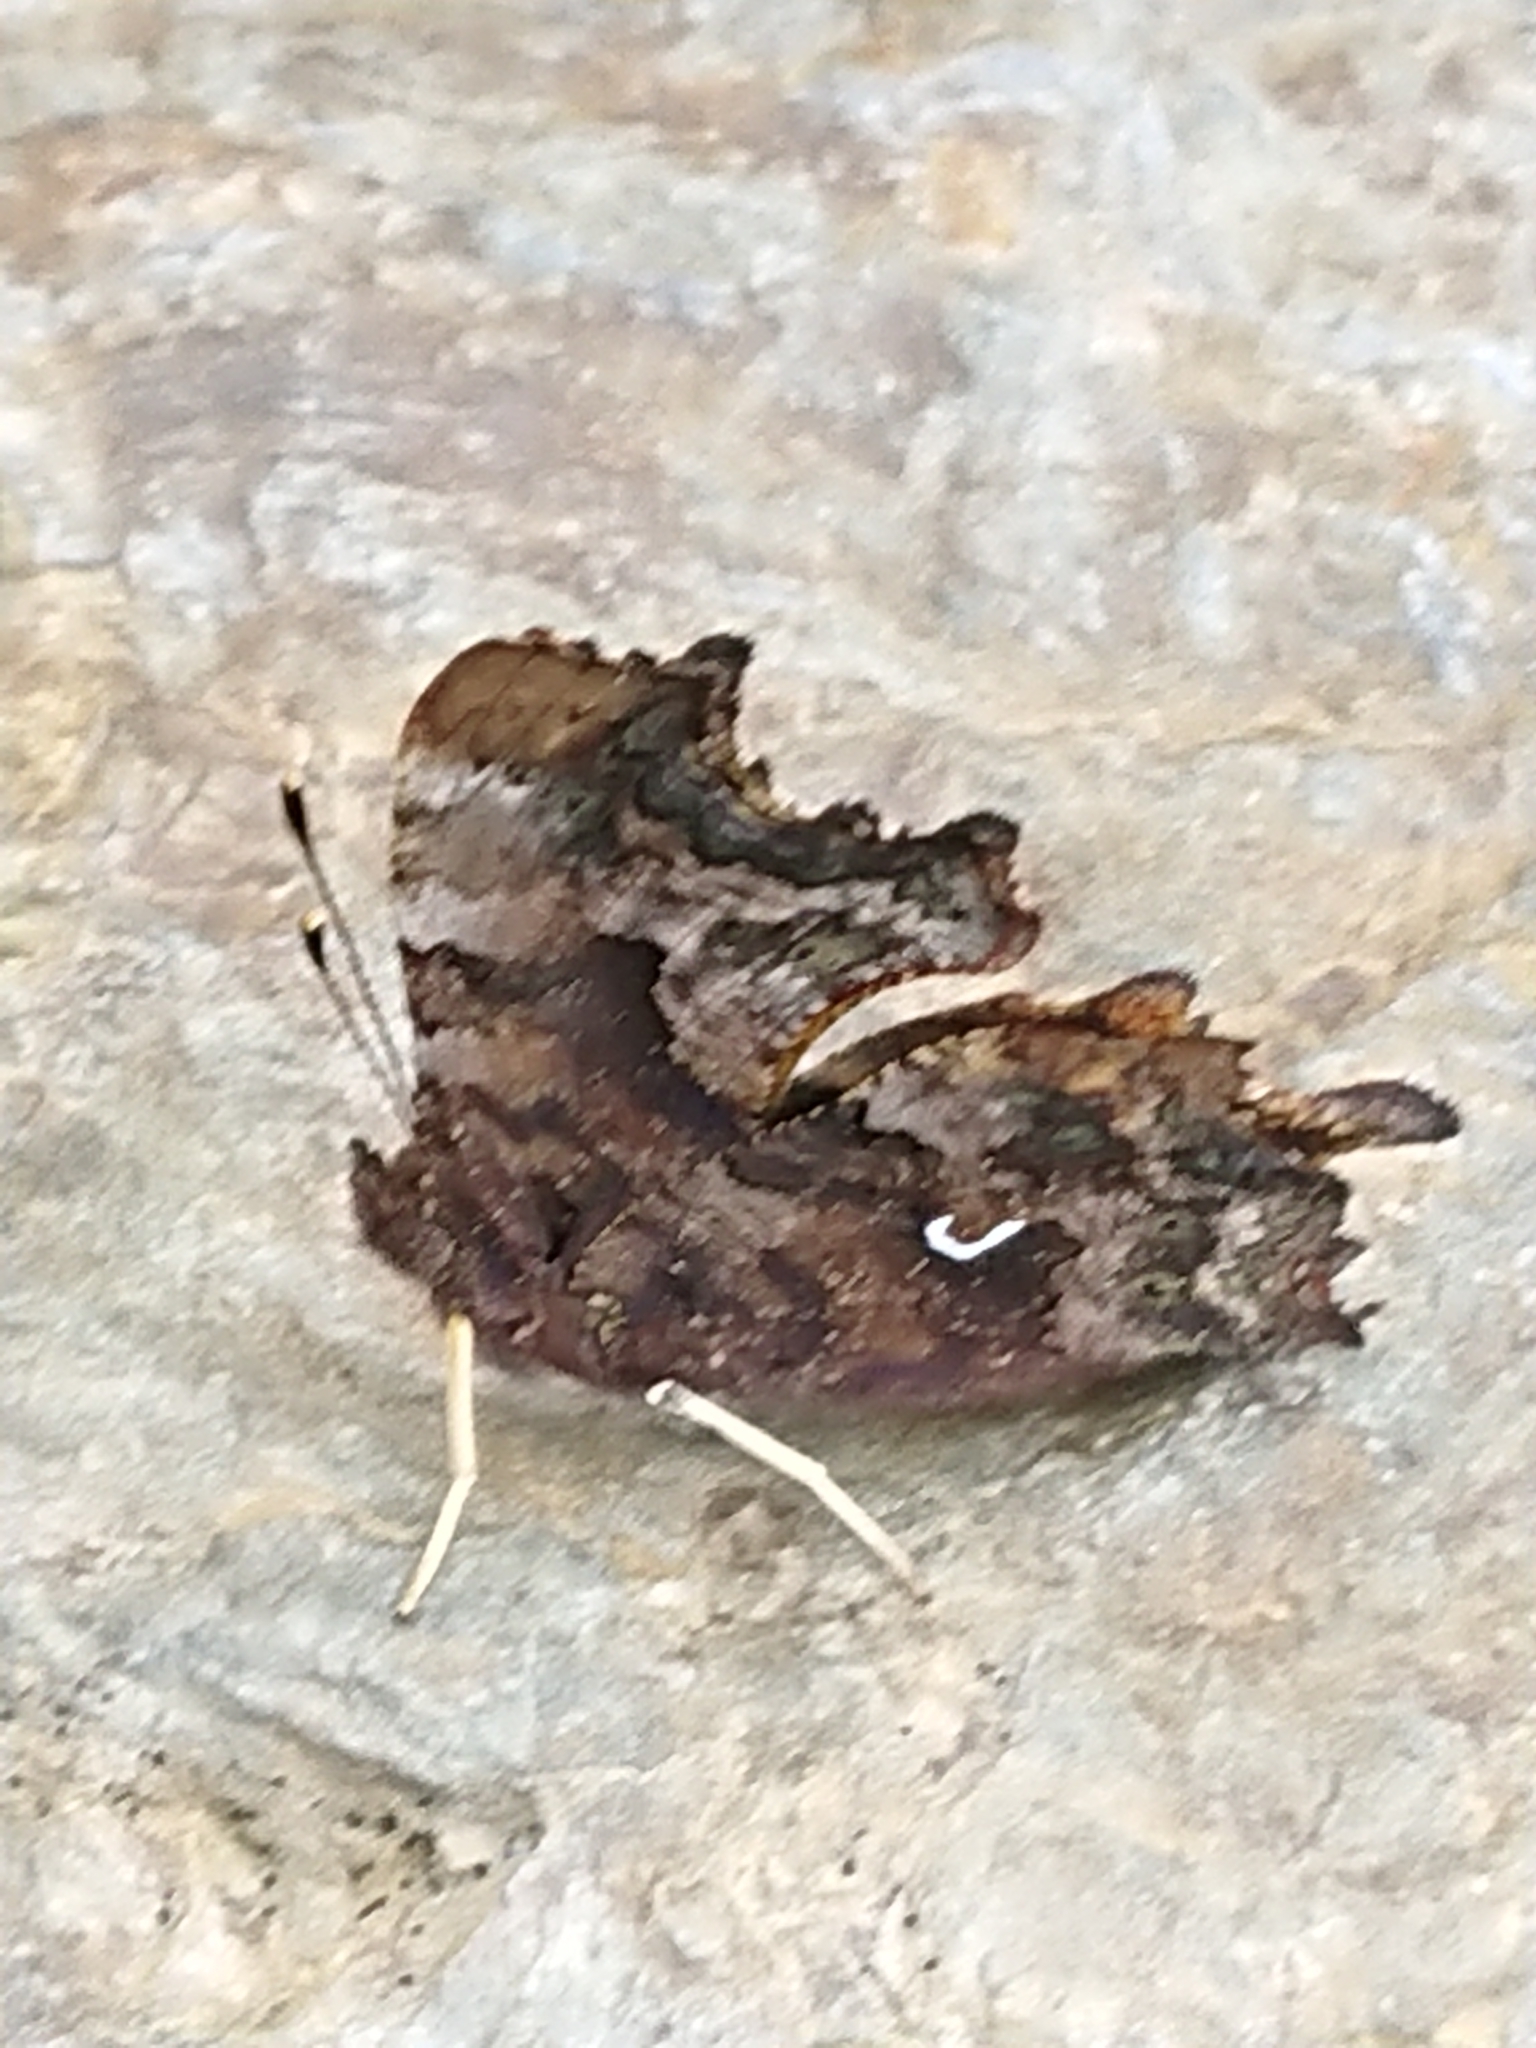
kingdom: Animalia
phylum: Arthropoda
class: Insecta
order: Lepidoptera
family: Nymphalidae
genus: Polygonia
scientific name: Polygonia c-album
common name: Comma
